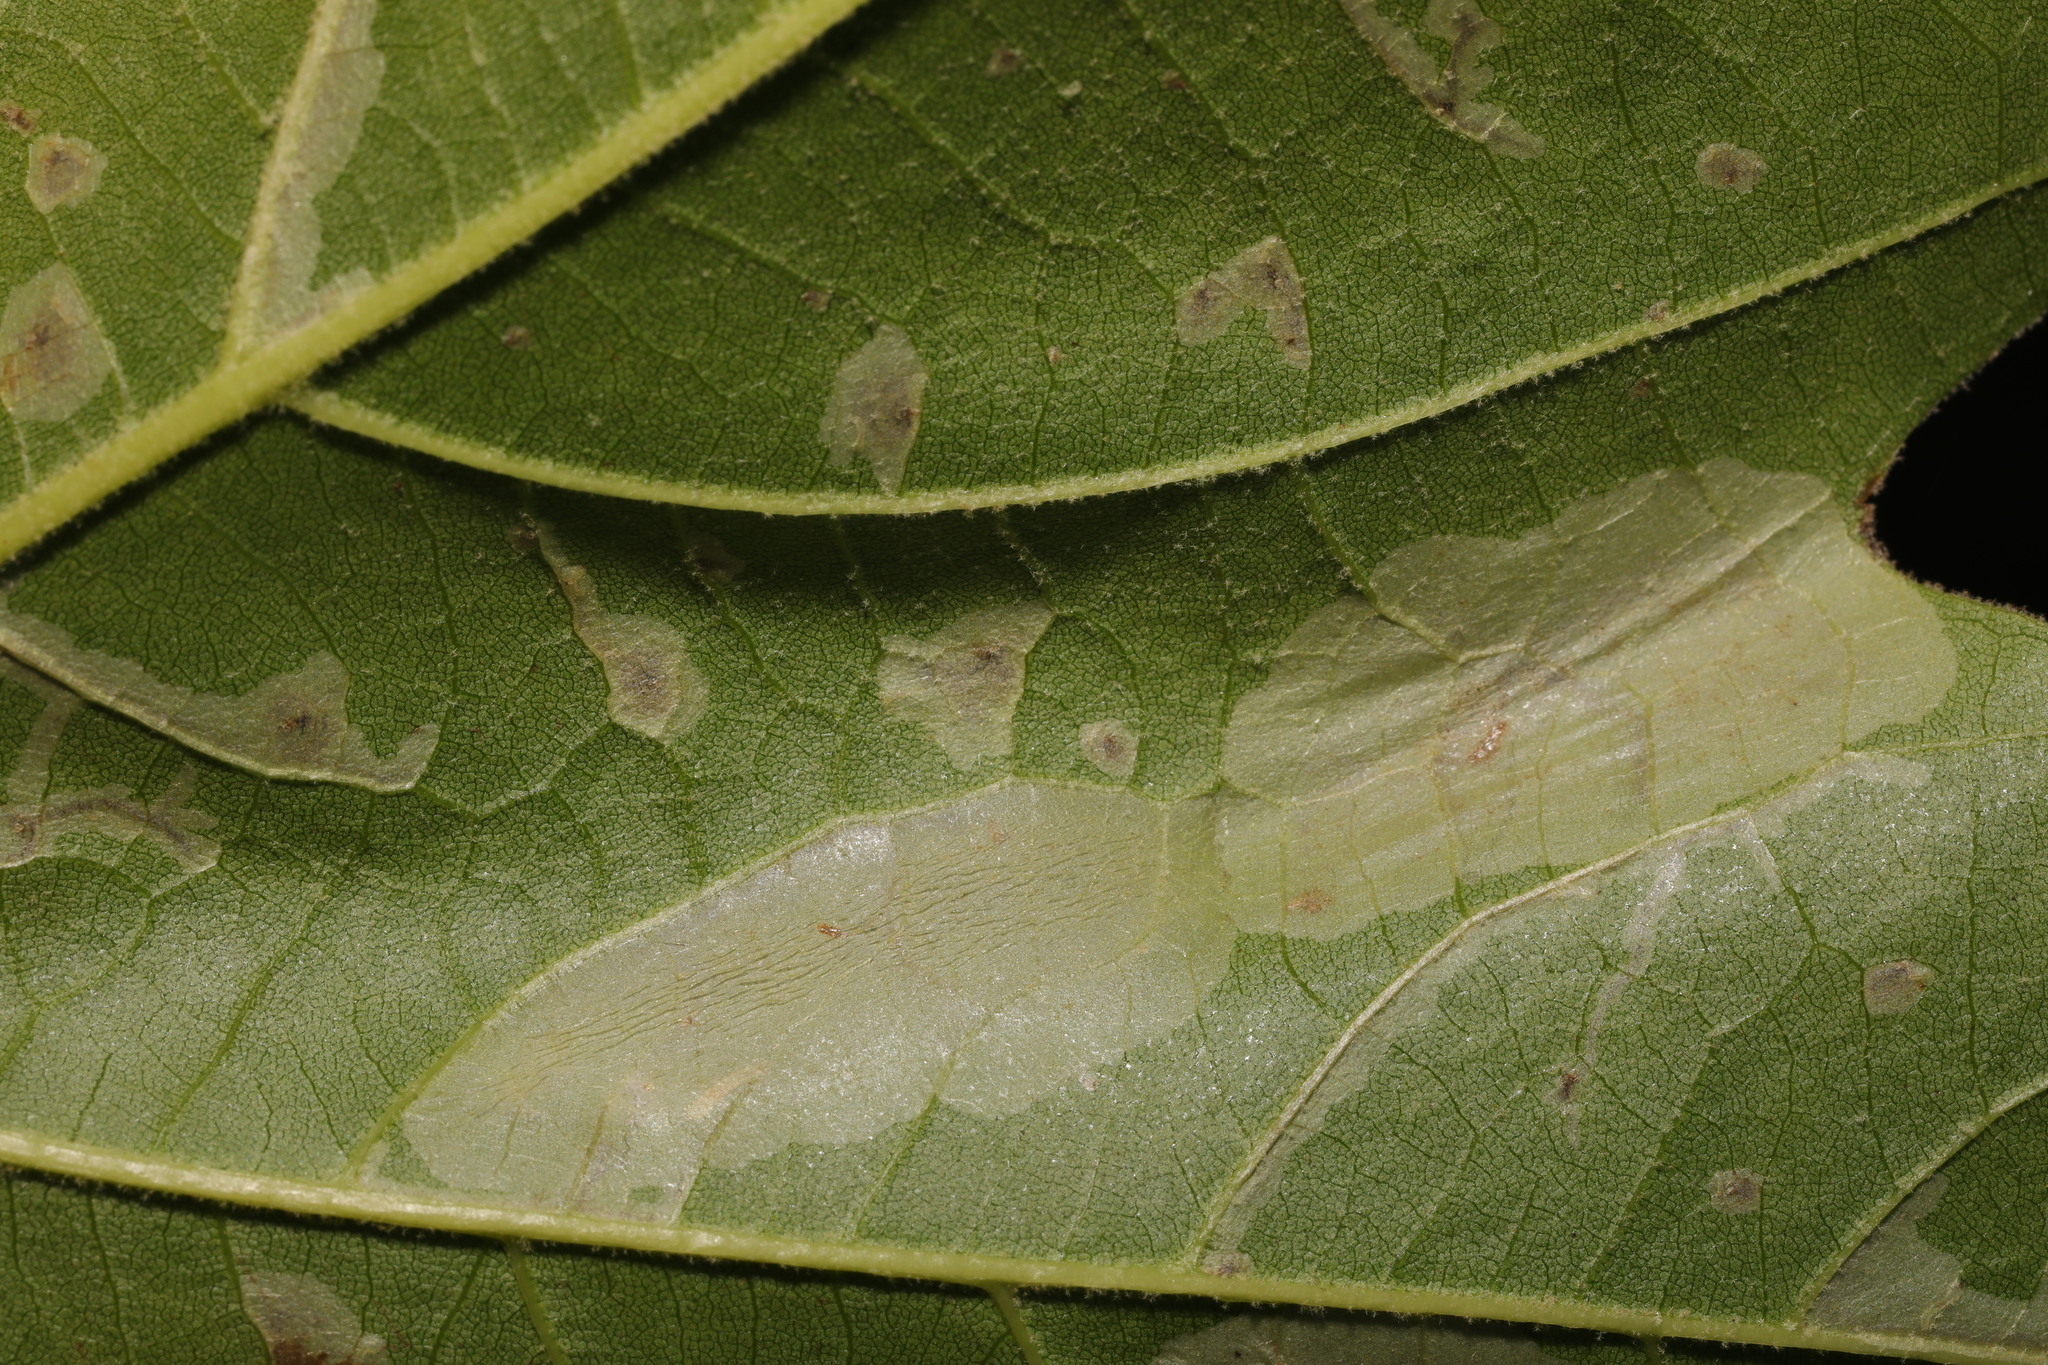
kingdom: Animalia
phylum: Arthropoda
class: Insecta
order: Lepidoptera
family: Gracillariidae
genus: Phyllonorycter
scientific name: Phyllonorycter platani
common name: London midget
